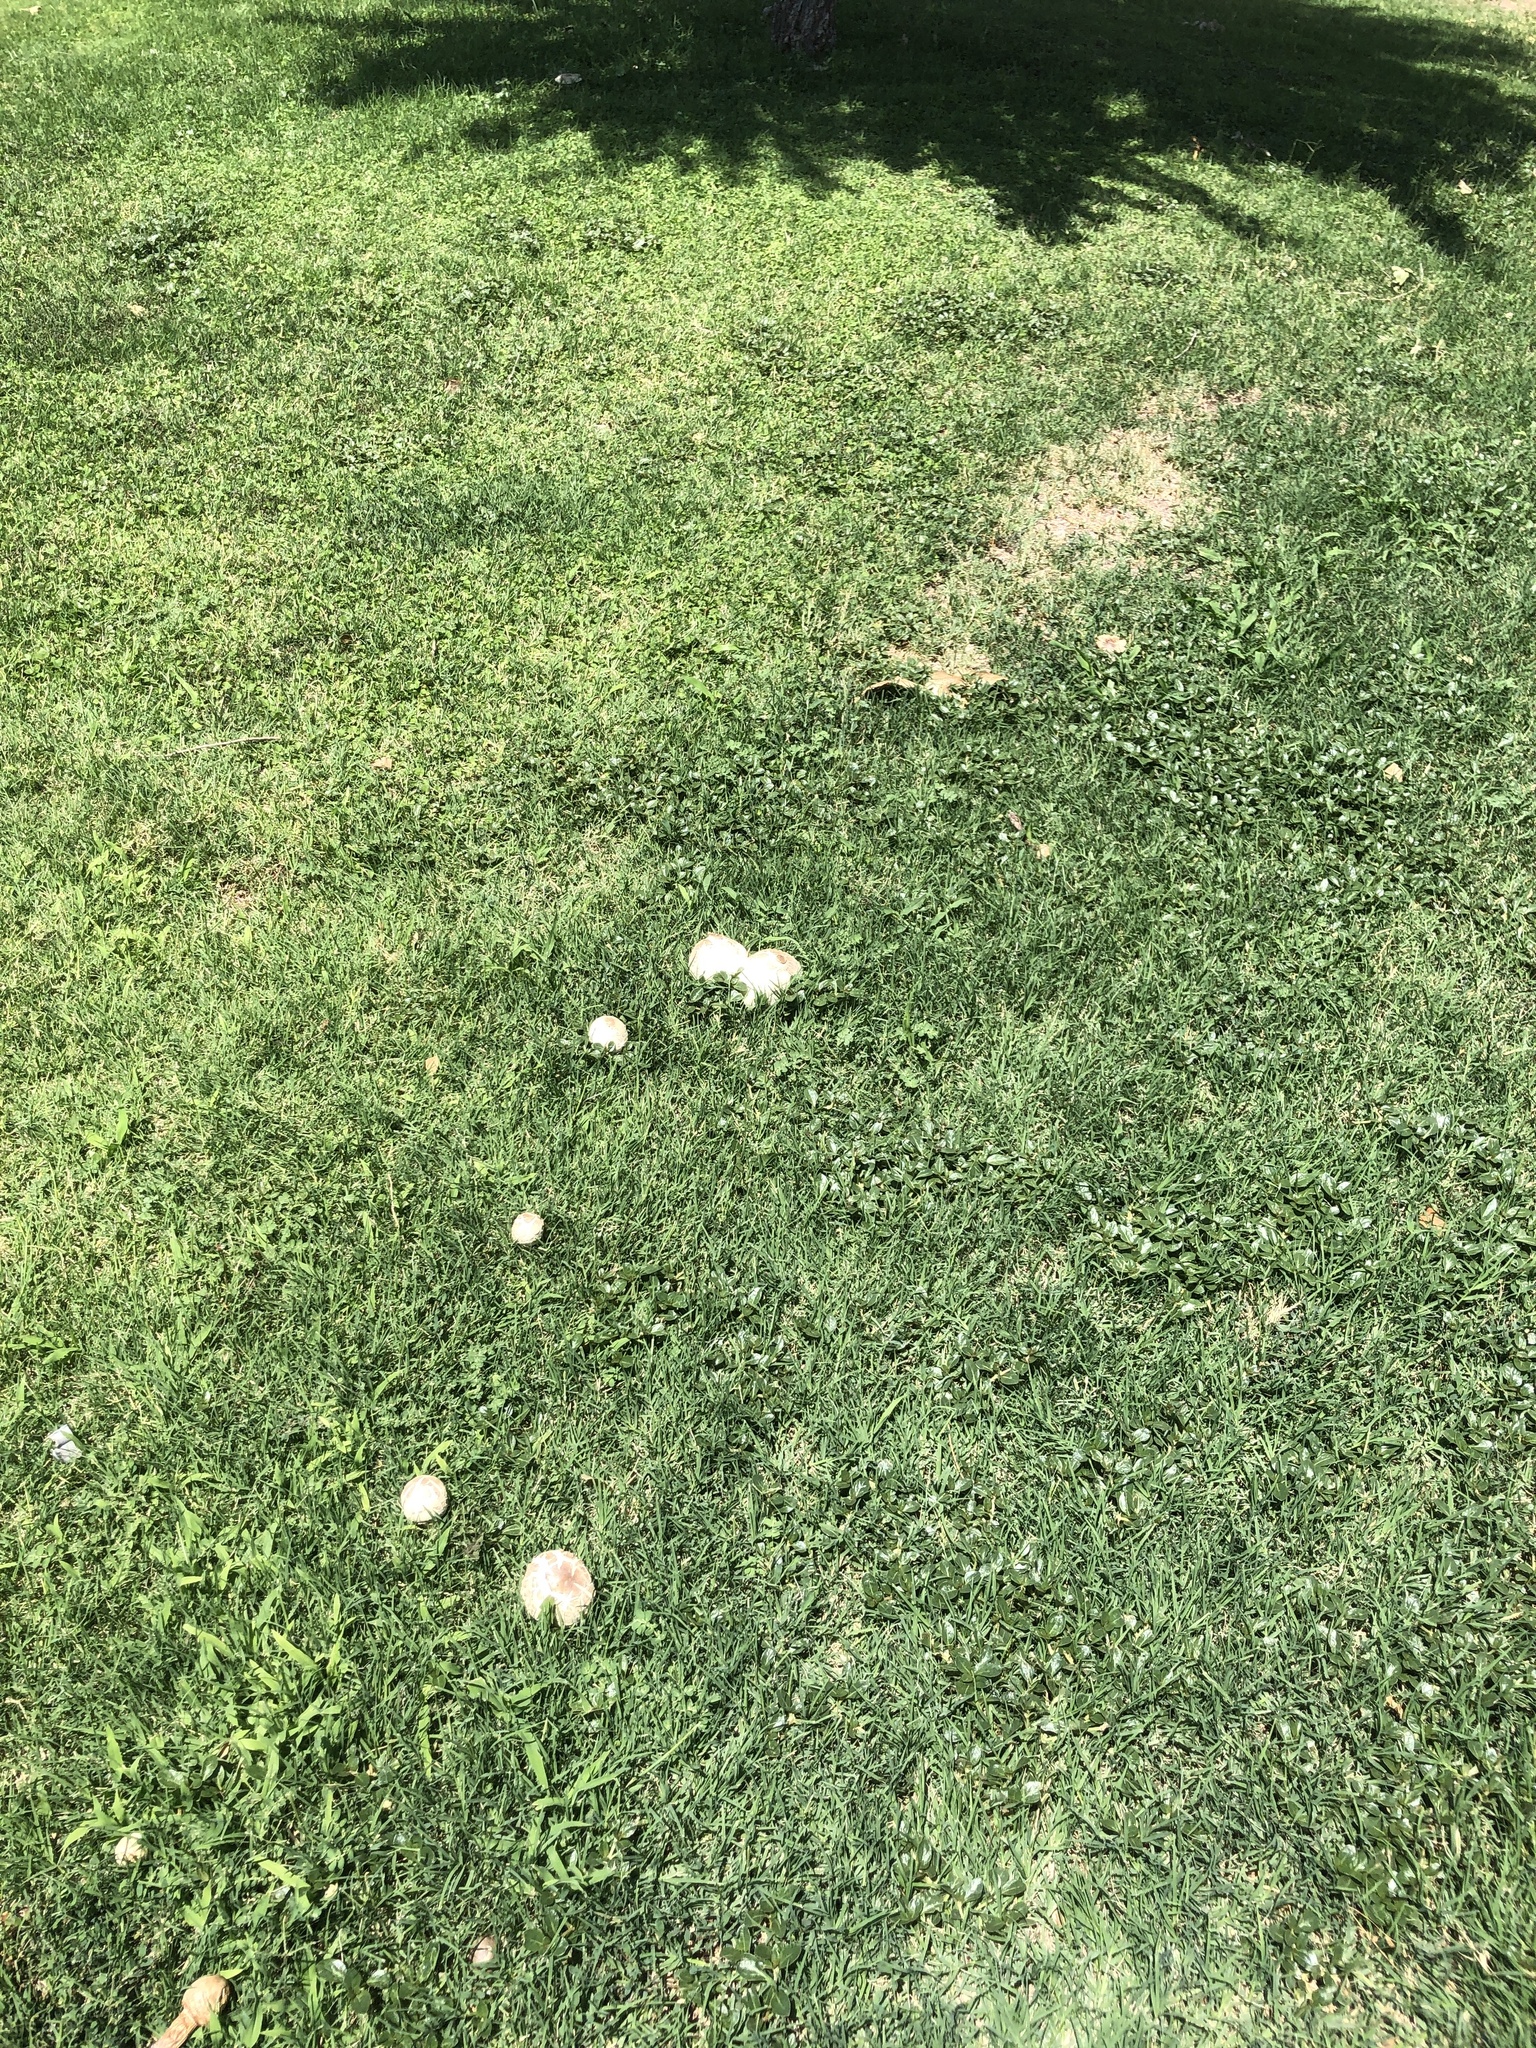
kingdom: Fungi
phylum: Basidiomycota
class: Agaricomycetes
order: Agaricales
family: Agaricaceae
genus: Chlorophyllum
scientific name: Chlorophyllum molybdites
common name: False parasol
